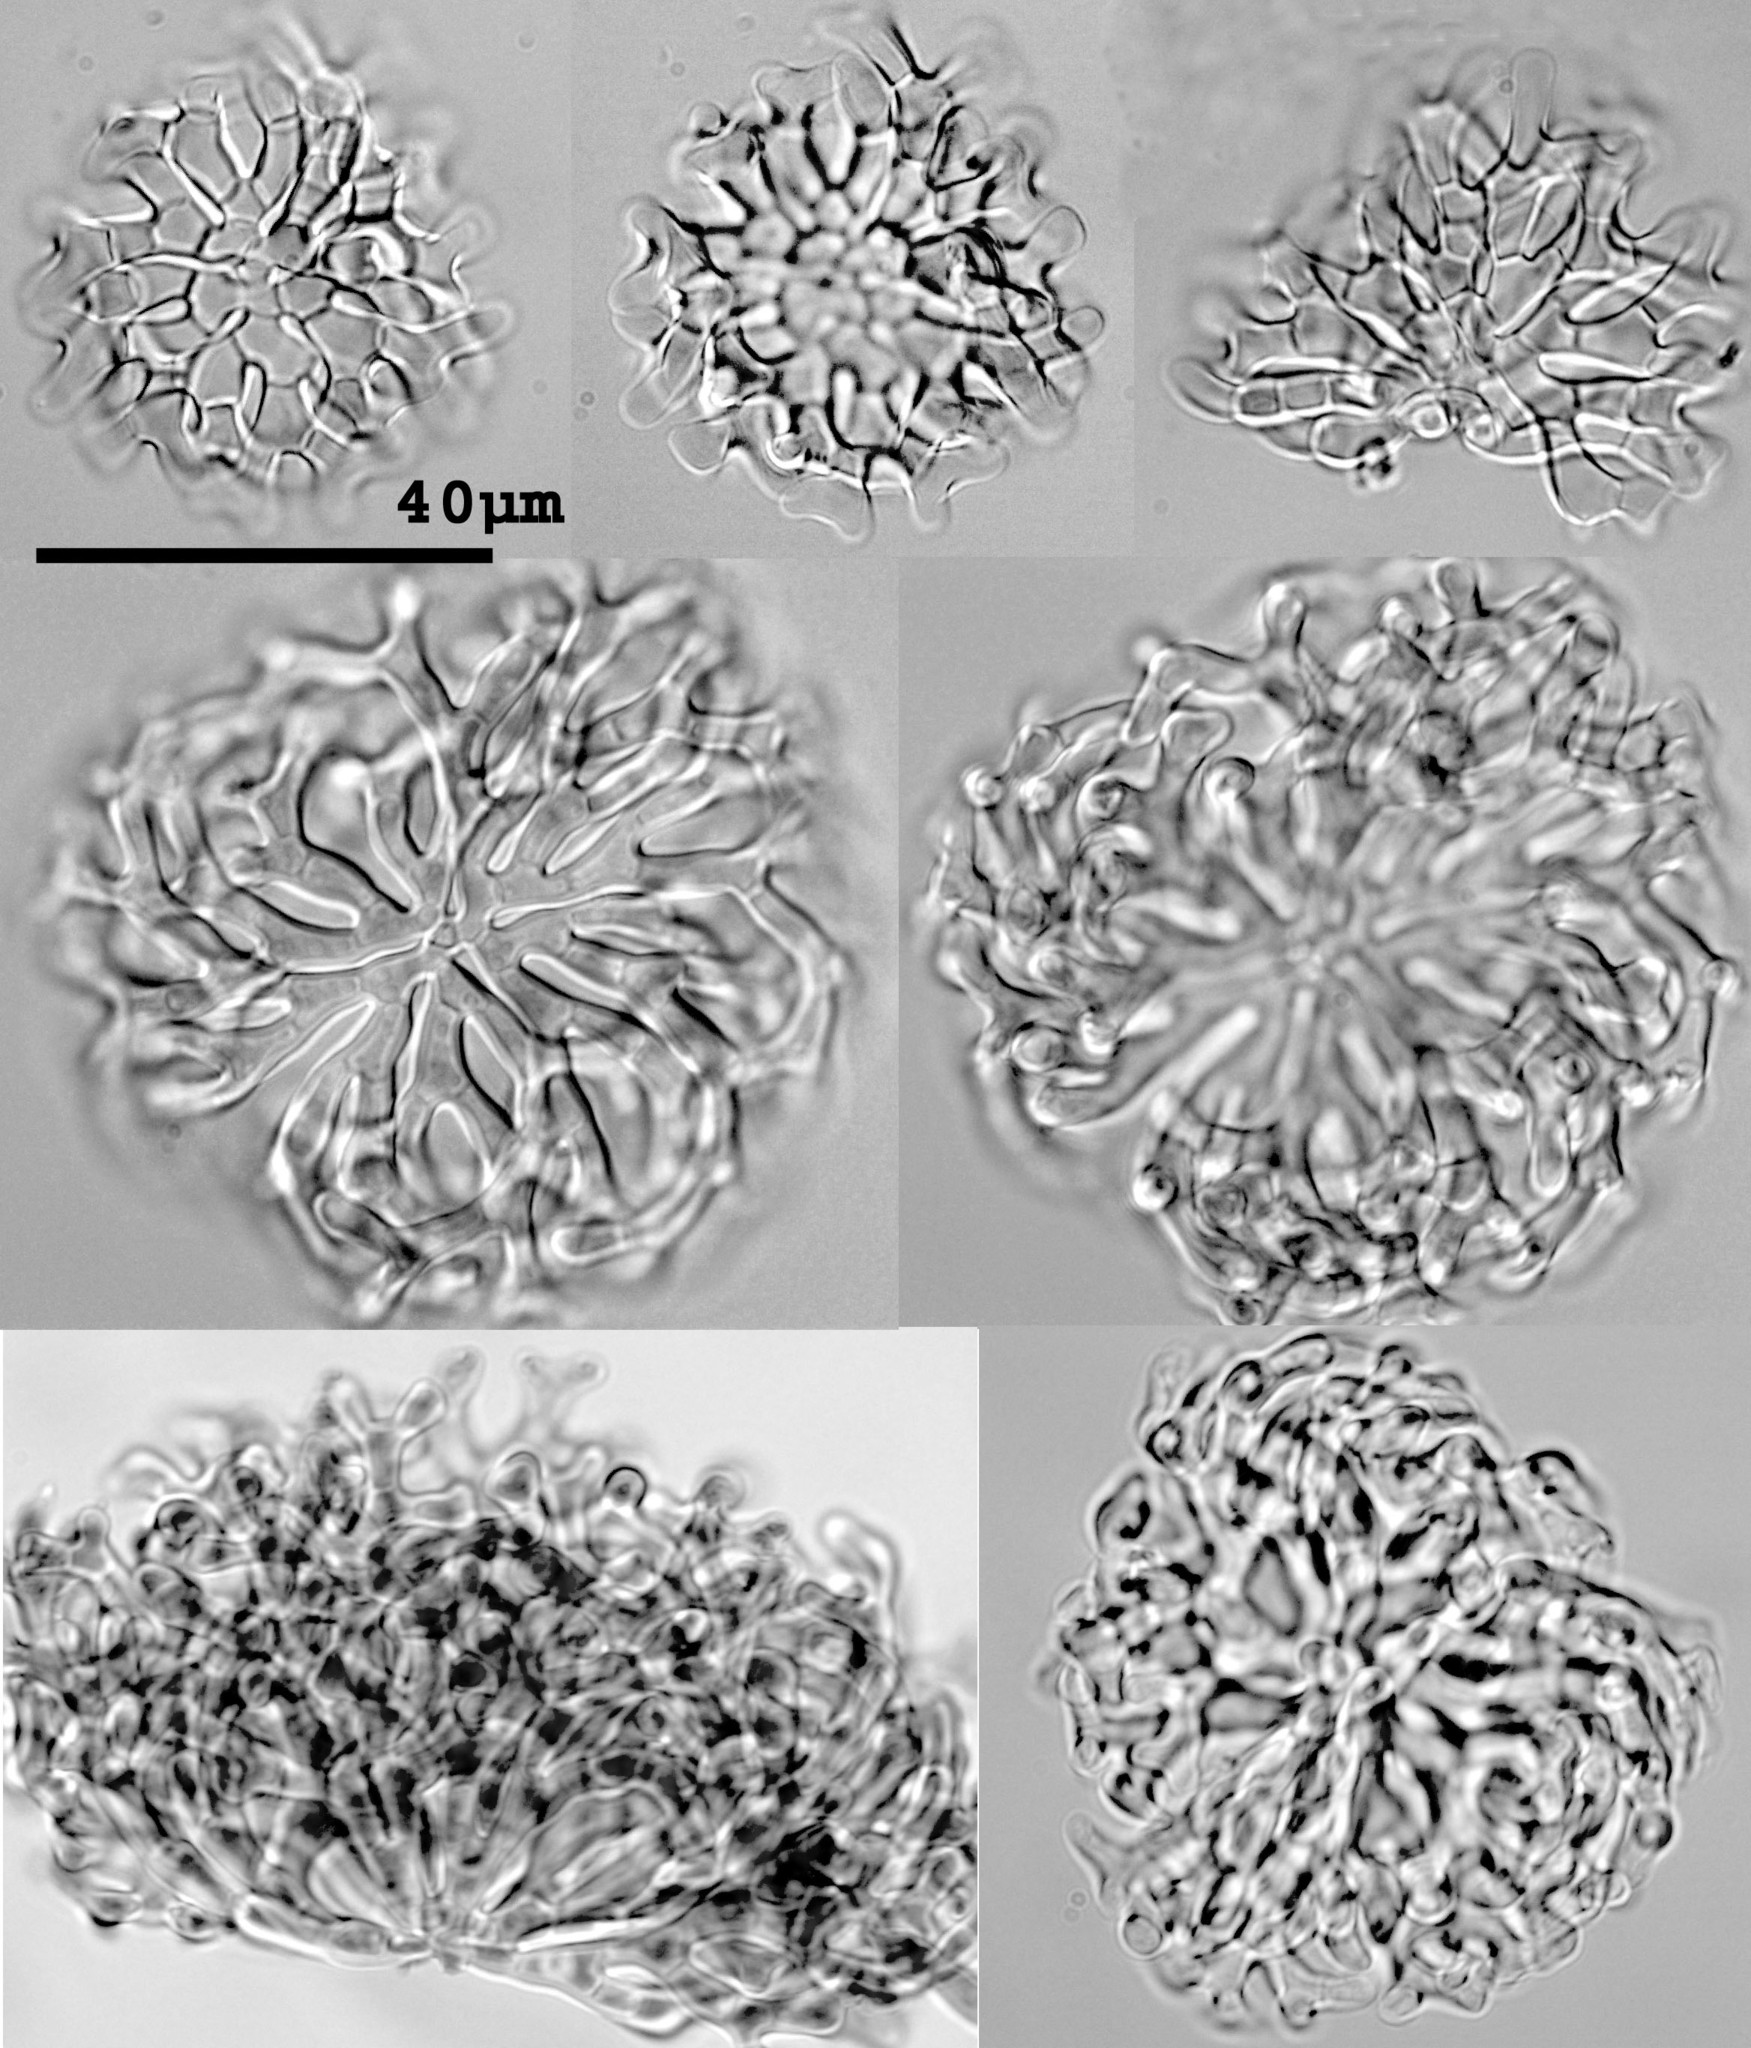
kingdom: Fungi
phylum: Ascomycota
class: Leotiomycetes
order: Helotiales
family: Helotiaceae
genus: Pseudoclathrosphaerina
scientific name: Pseudoclathrosphaerina spiralis
